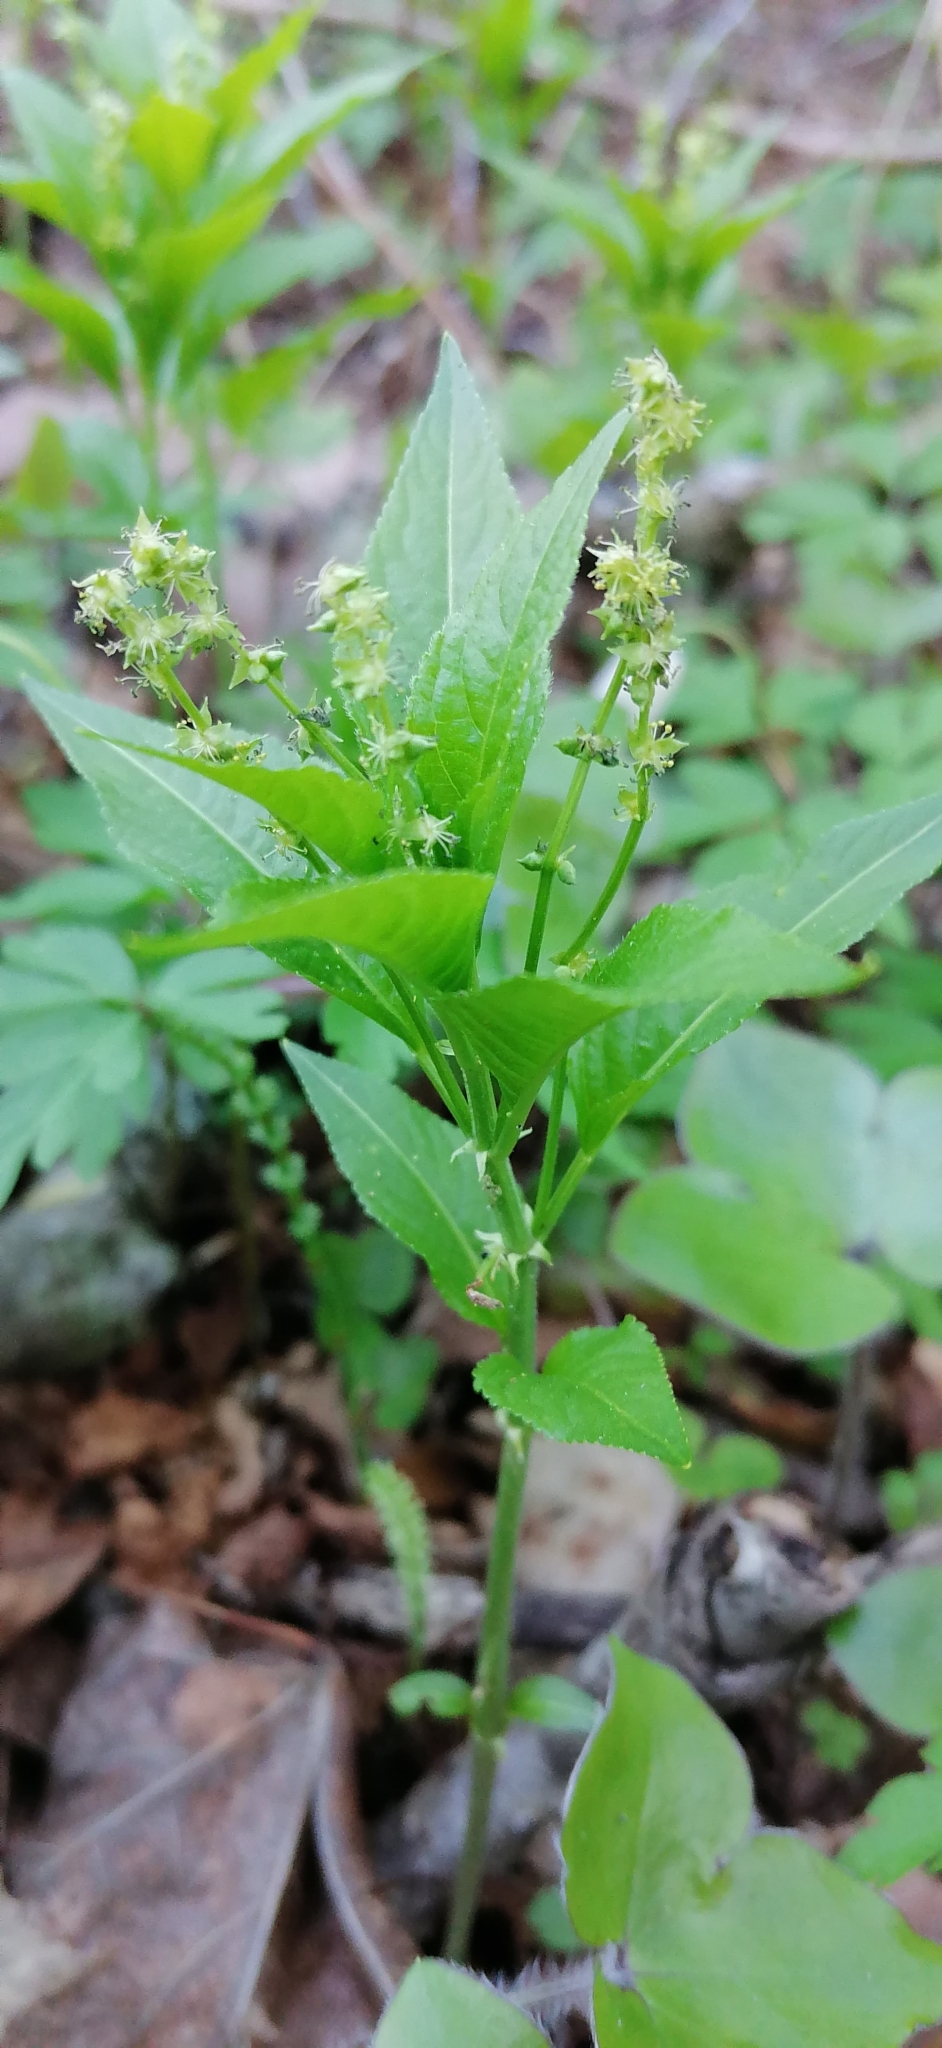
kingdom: Plantae
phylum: Tracheophyta
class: Magnoliopsida
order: Malpighiales
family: Euphorbiaceae
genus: Mercurialis
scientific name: Mercurialis perennis
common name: Dog mercury
